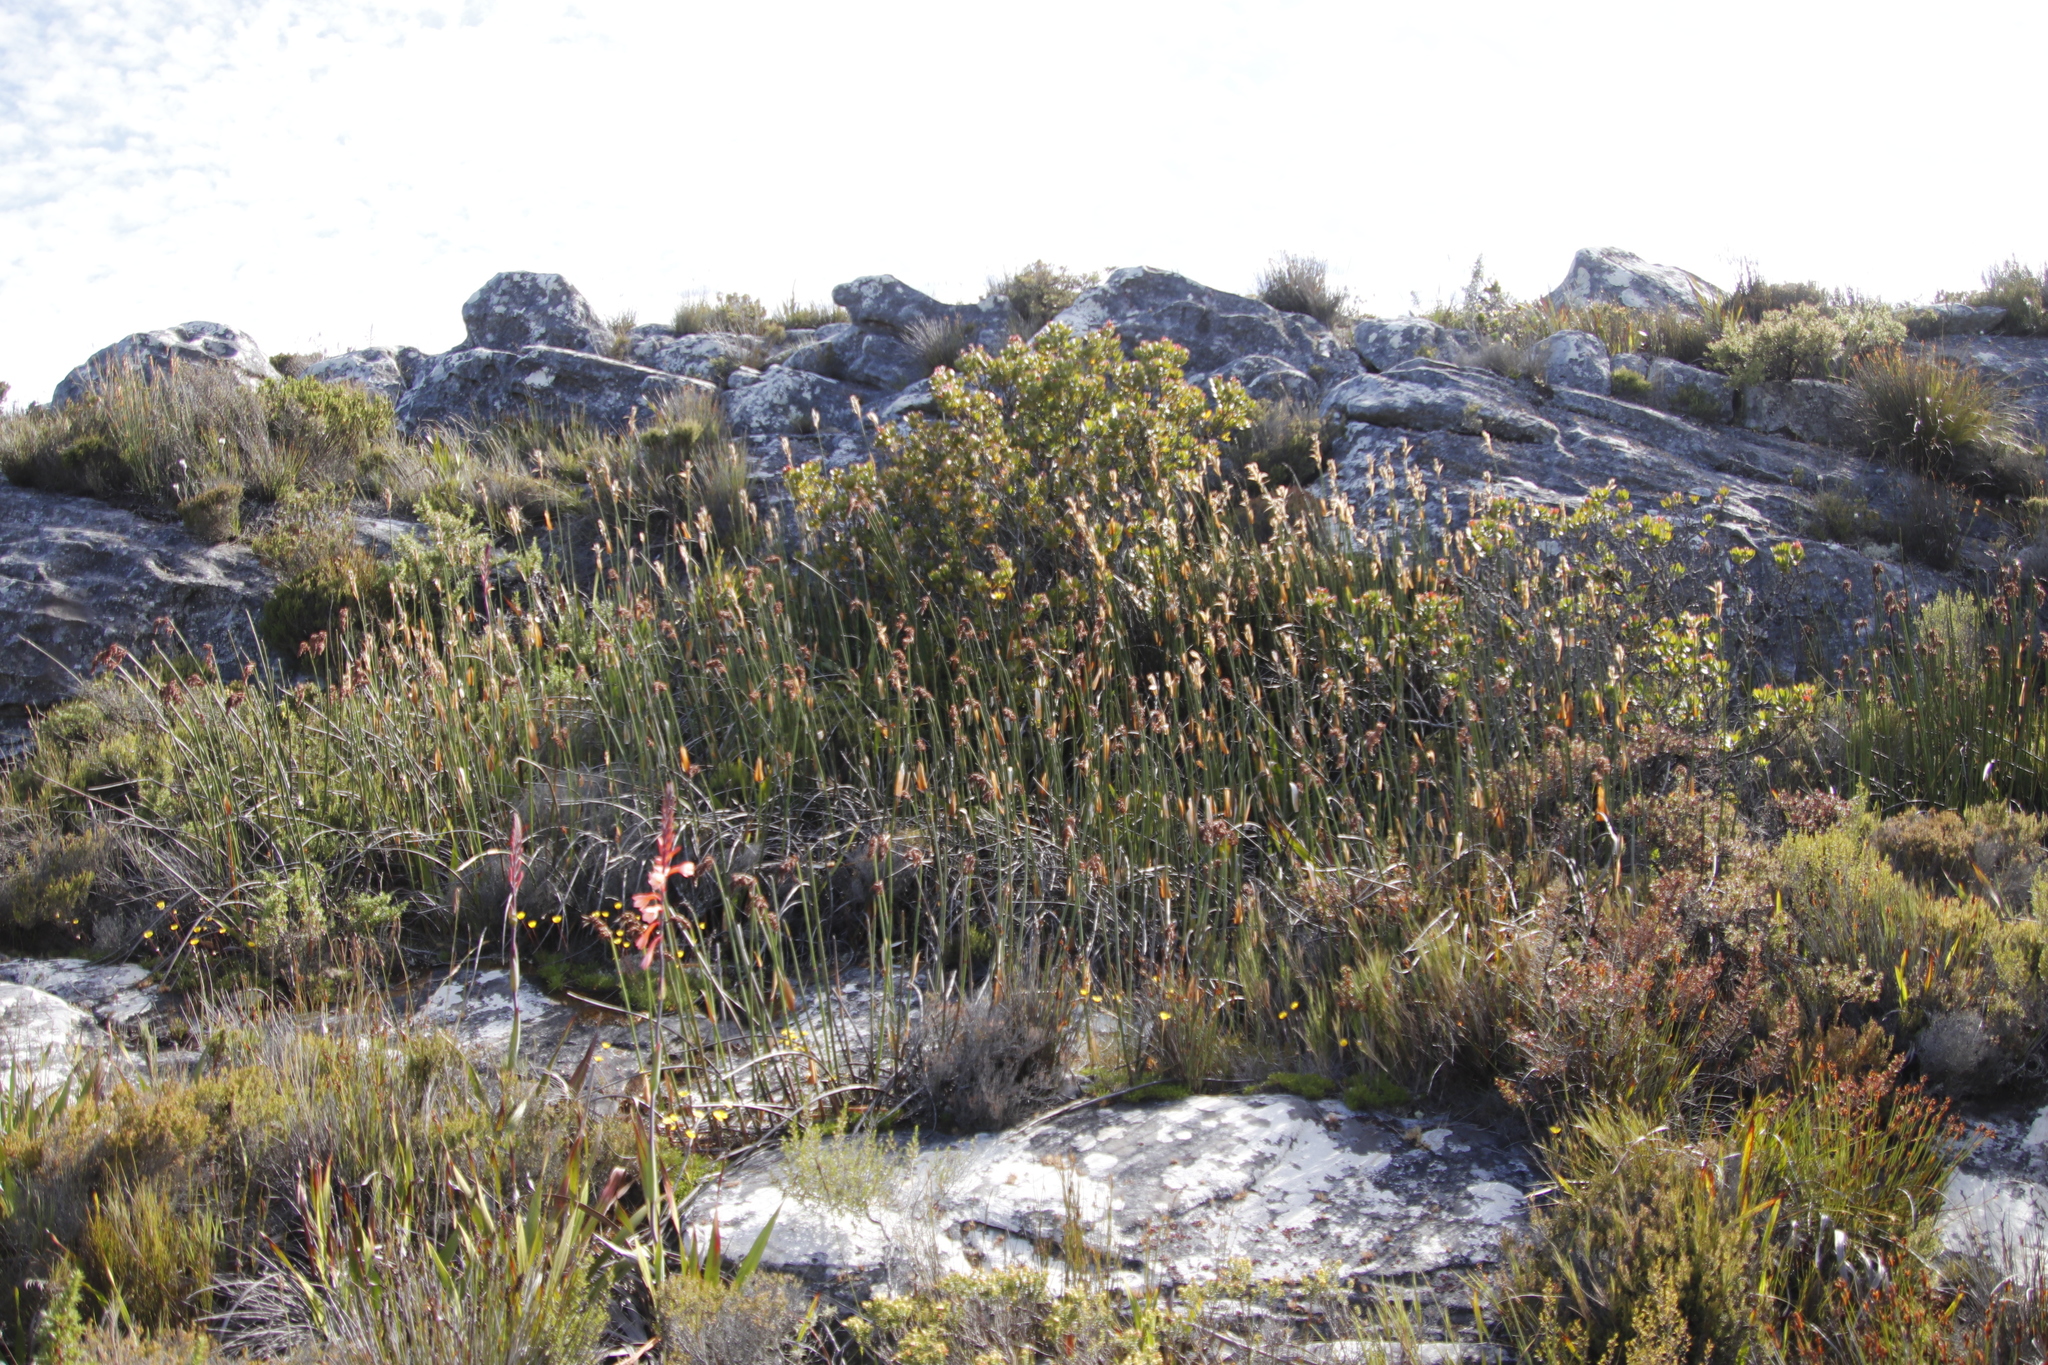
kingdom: Plantae
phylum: Tracheophyta
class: Liliopsida
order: Poales
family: Restionaceae
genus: Elegia
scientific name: Elegia mucronata
